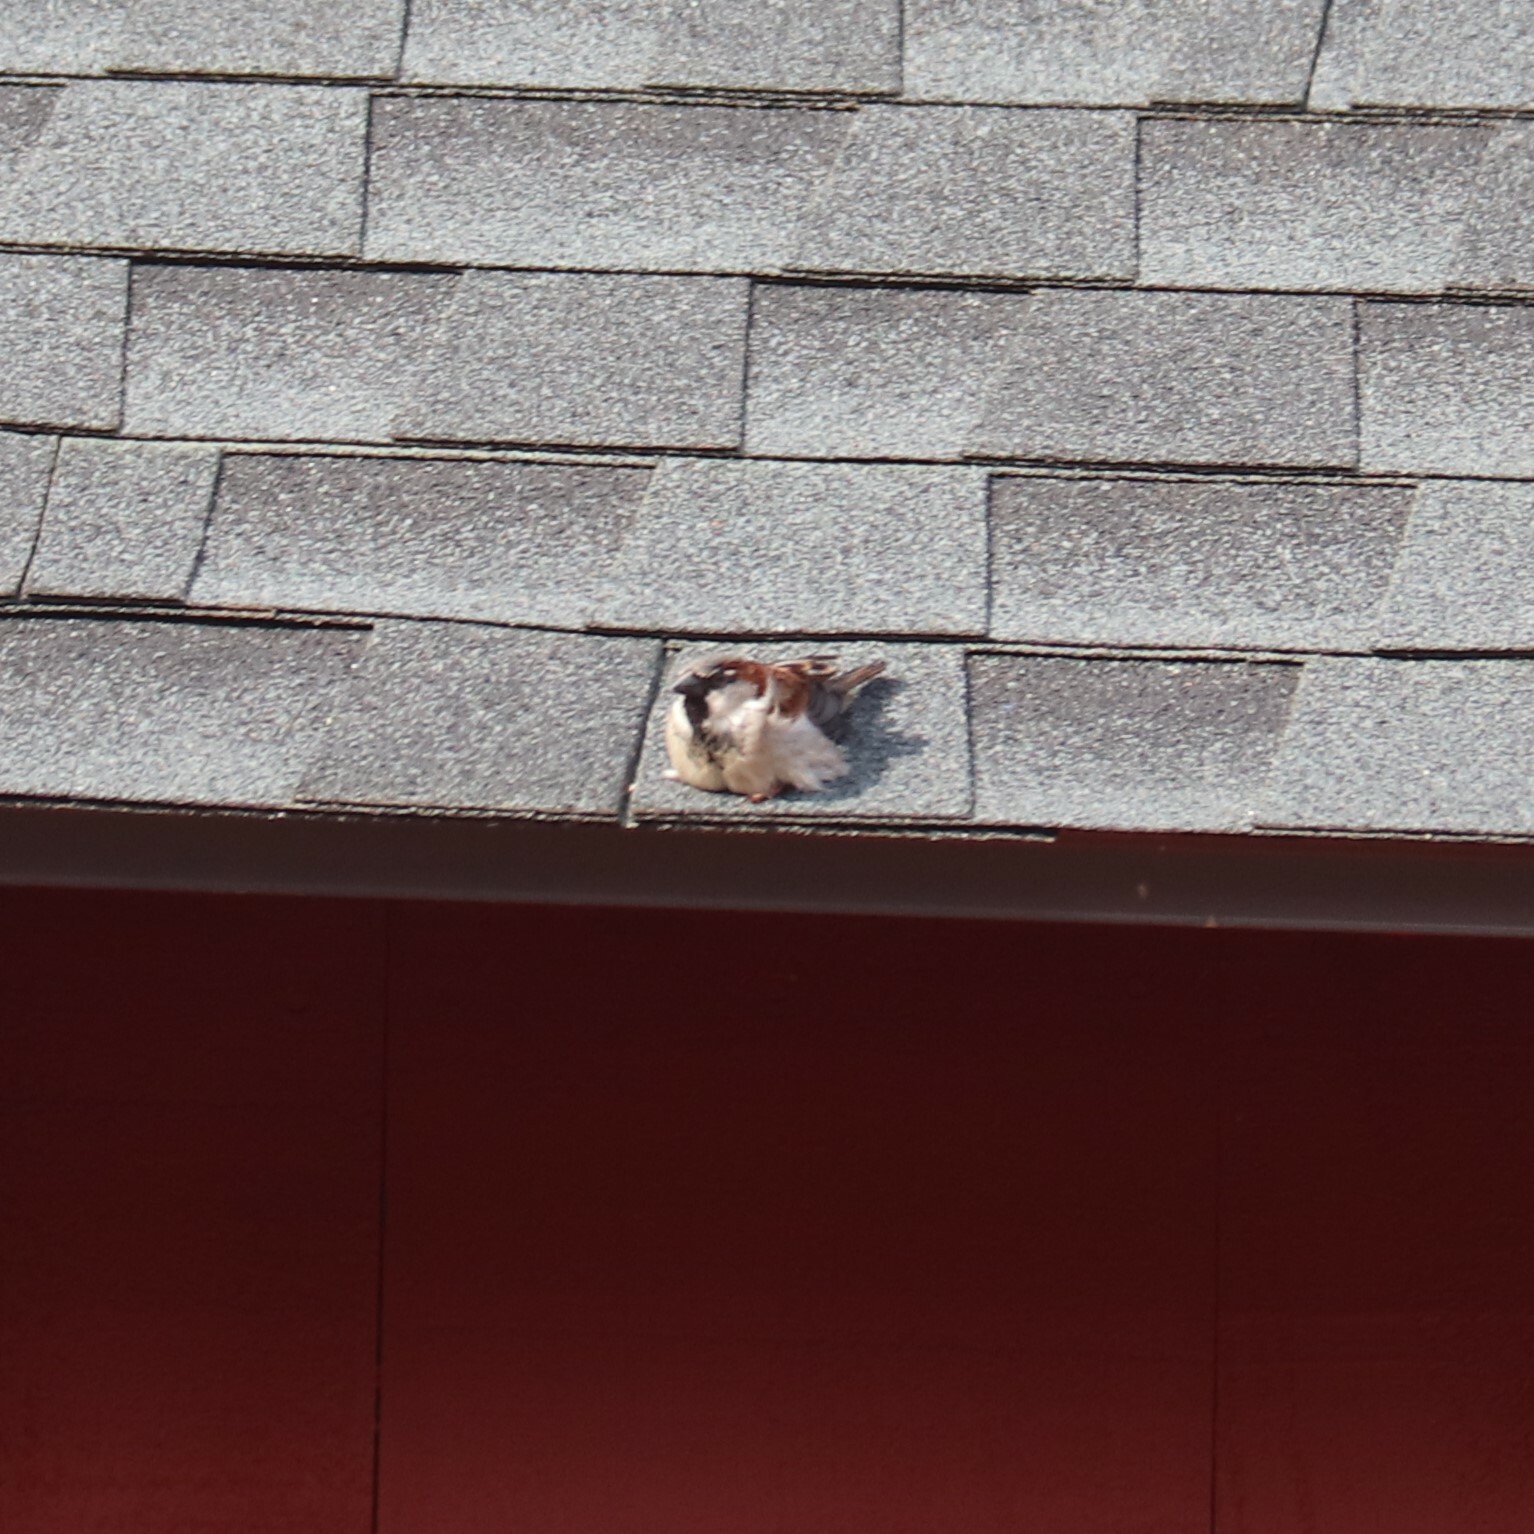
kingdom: Animalia
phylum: Chordata
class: Aves
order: Passeriformes
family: Passeridae
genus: Passer
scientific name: Passer domesticus
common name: House sparrow
